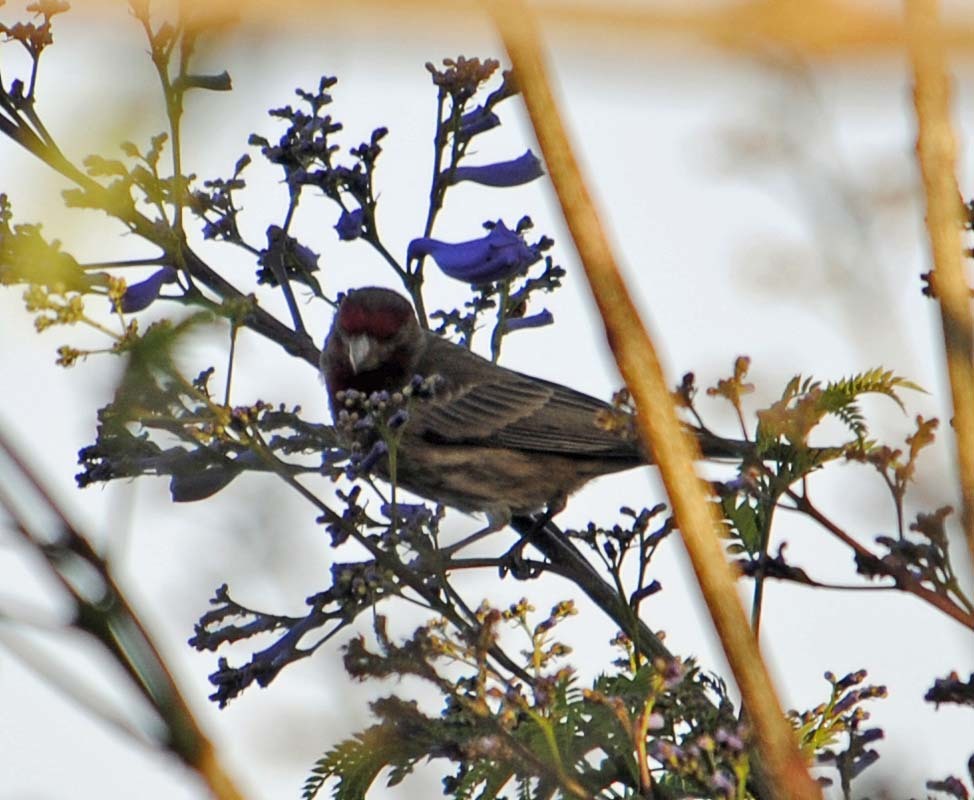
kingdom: Animalia
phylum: Chordata
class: Aves
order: Passeriformes
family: Fringillidae
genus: Haemorhous
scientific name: Haemorhous mexicanus
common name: House finch
